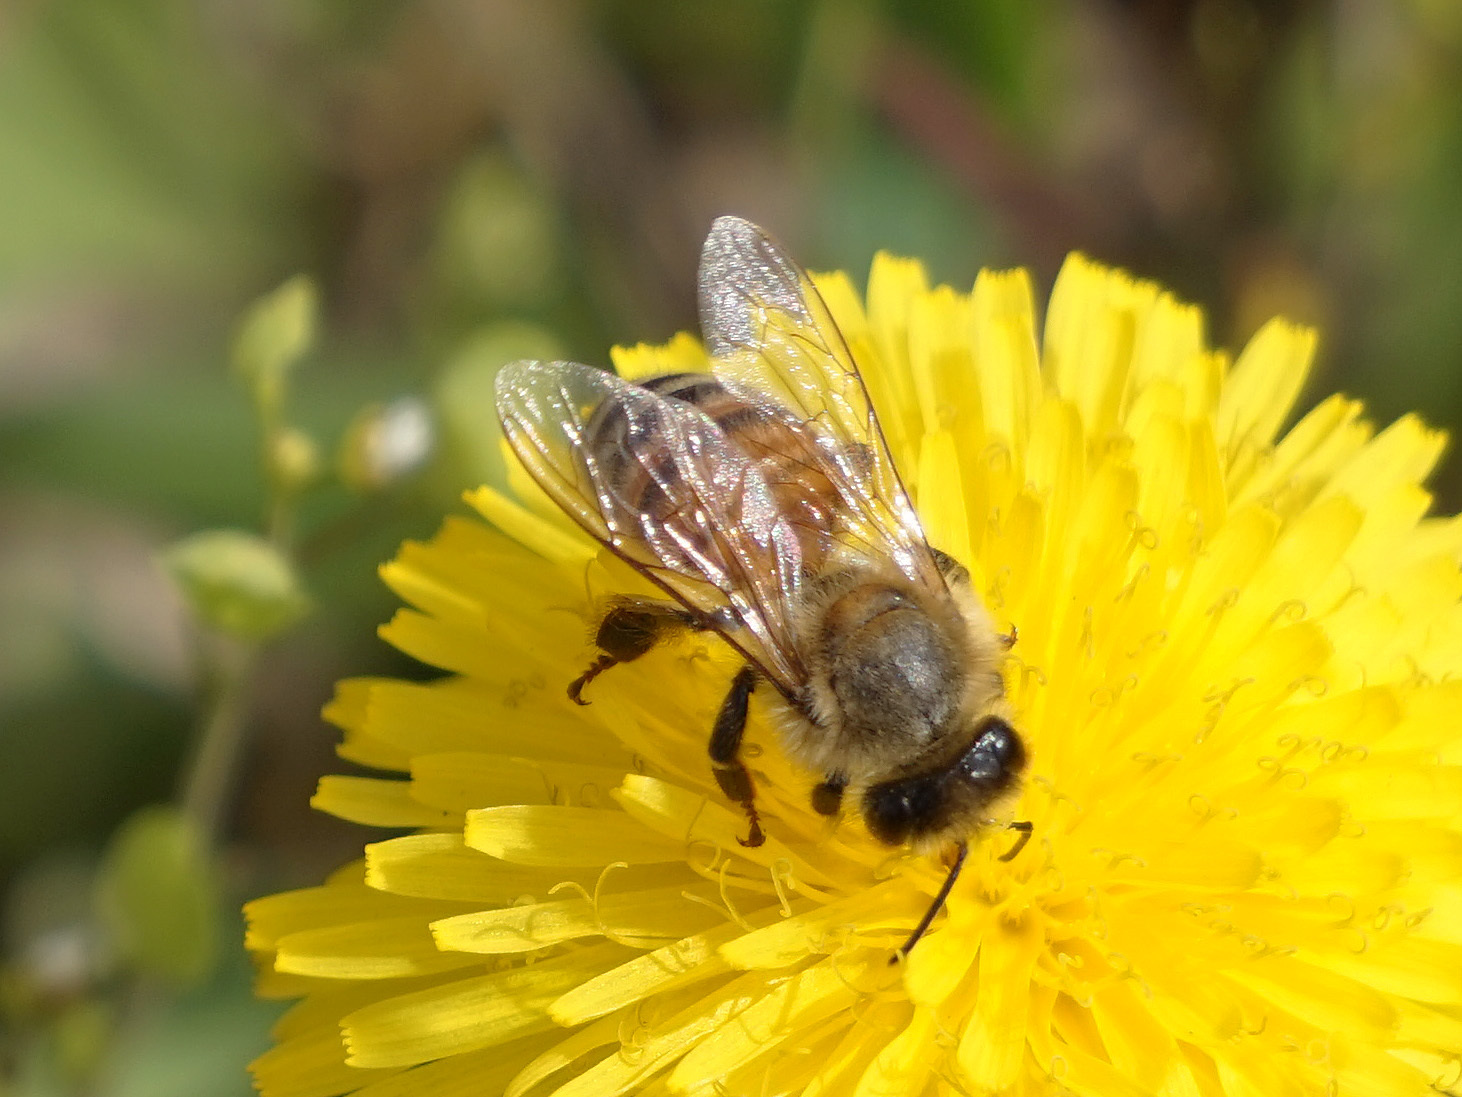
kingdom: Animalia
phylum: Arthropoda
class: Insecta
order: Hymenoptera
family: Apidae
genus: Apis
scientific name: Apis mellifera
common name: Honey bee
